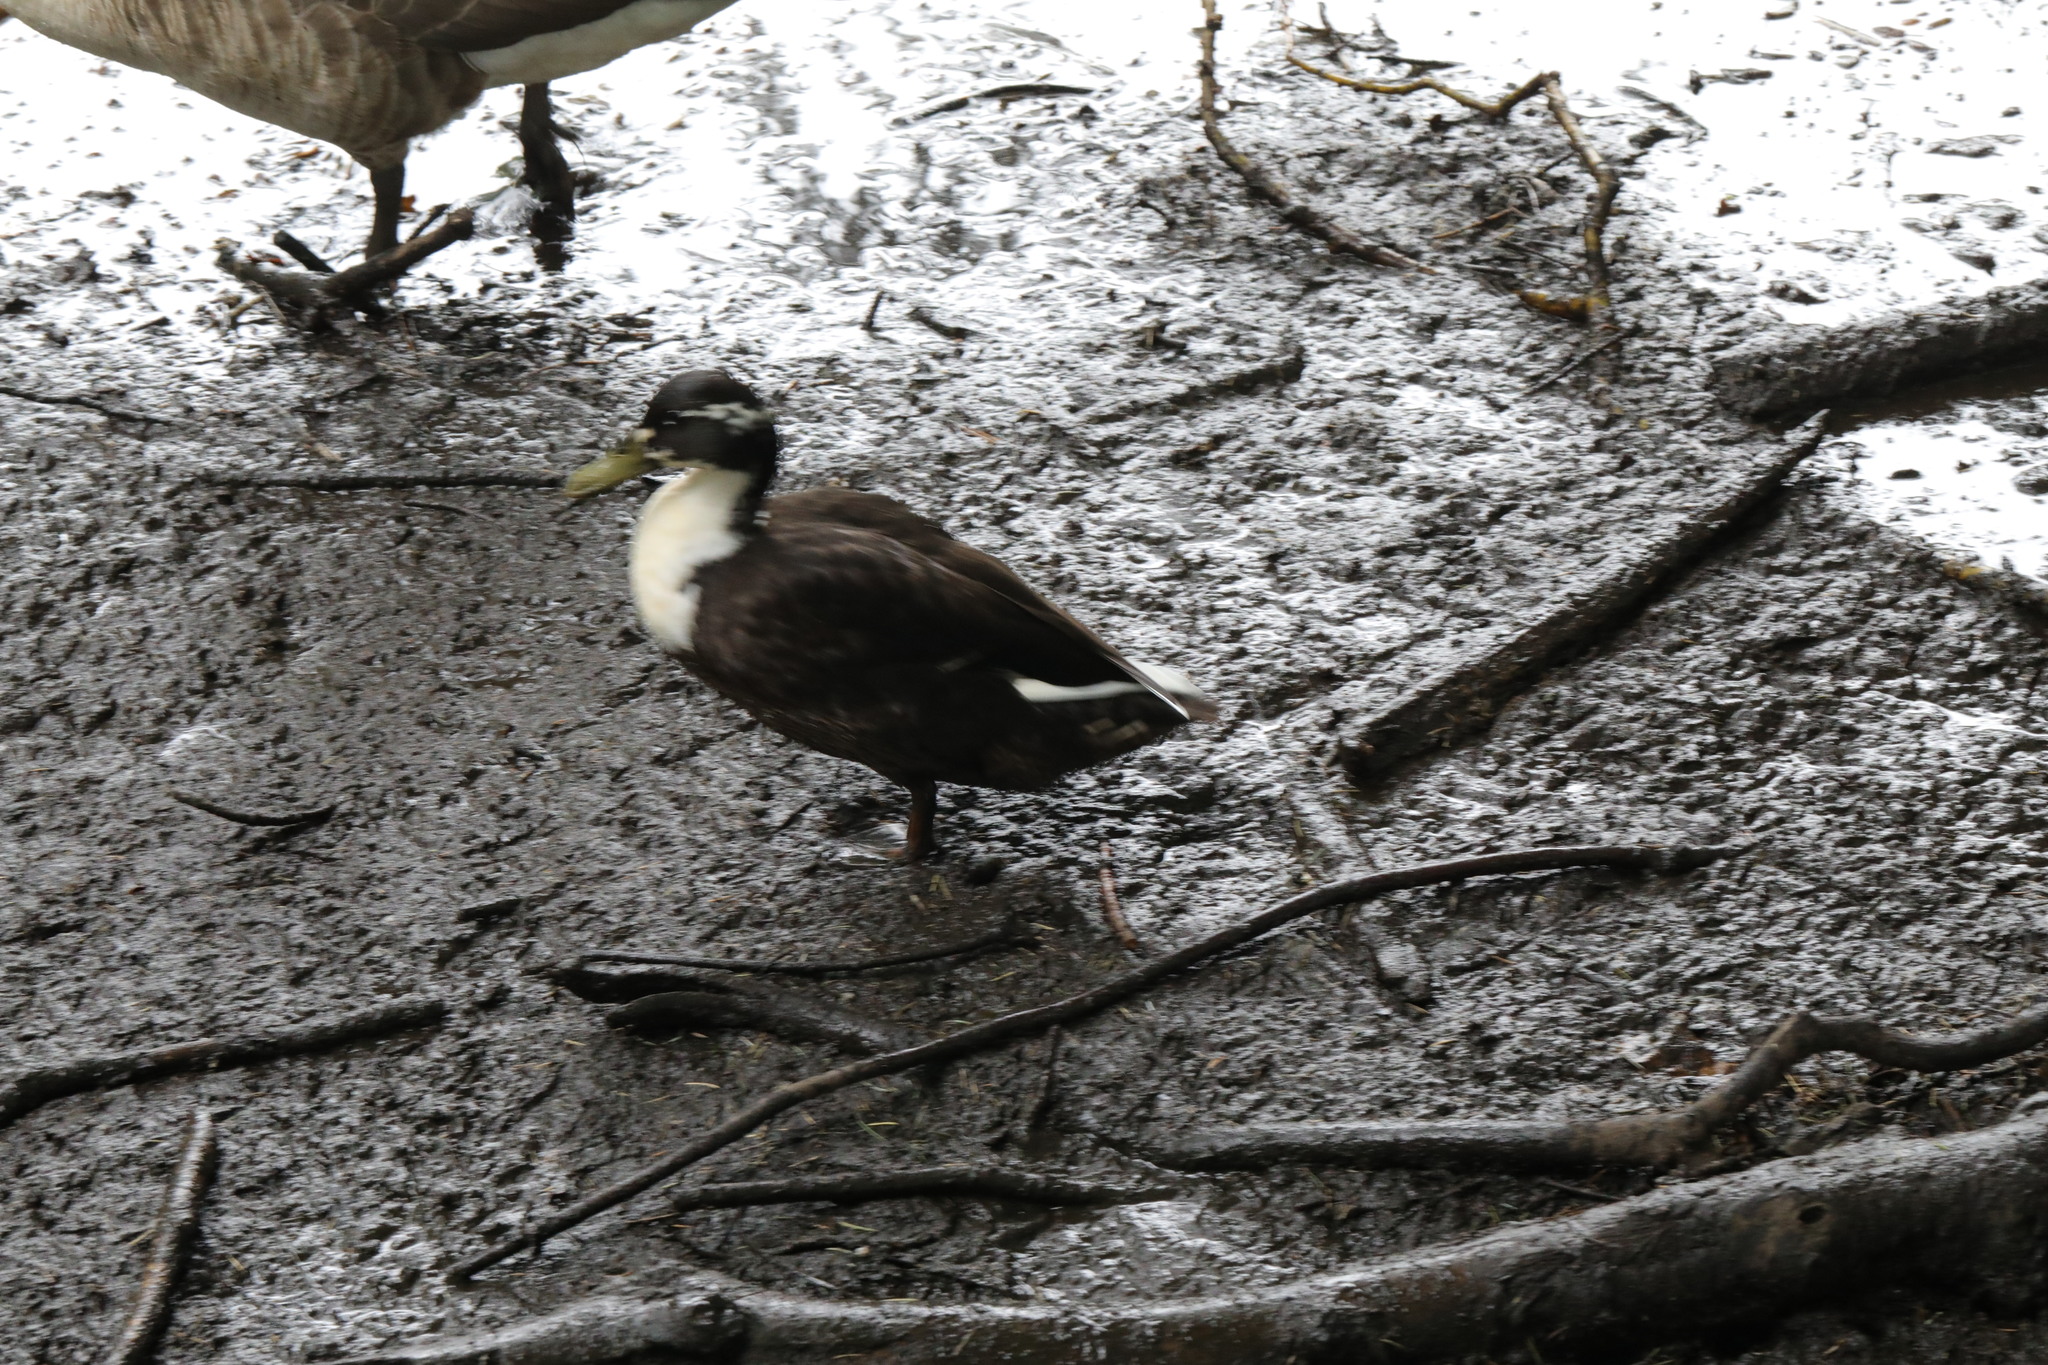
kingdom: Animalia
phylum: Chordata
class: Aves
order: Anseriformes
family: Anatidae
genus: Anas
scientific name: Anas platyrhynchos
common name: Mallard
